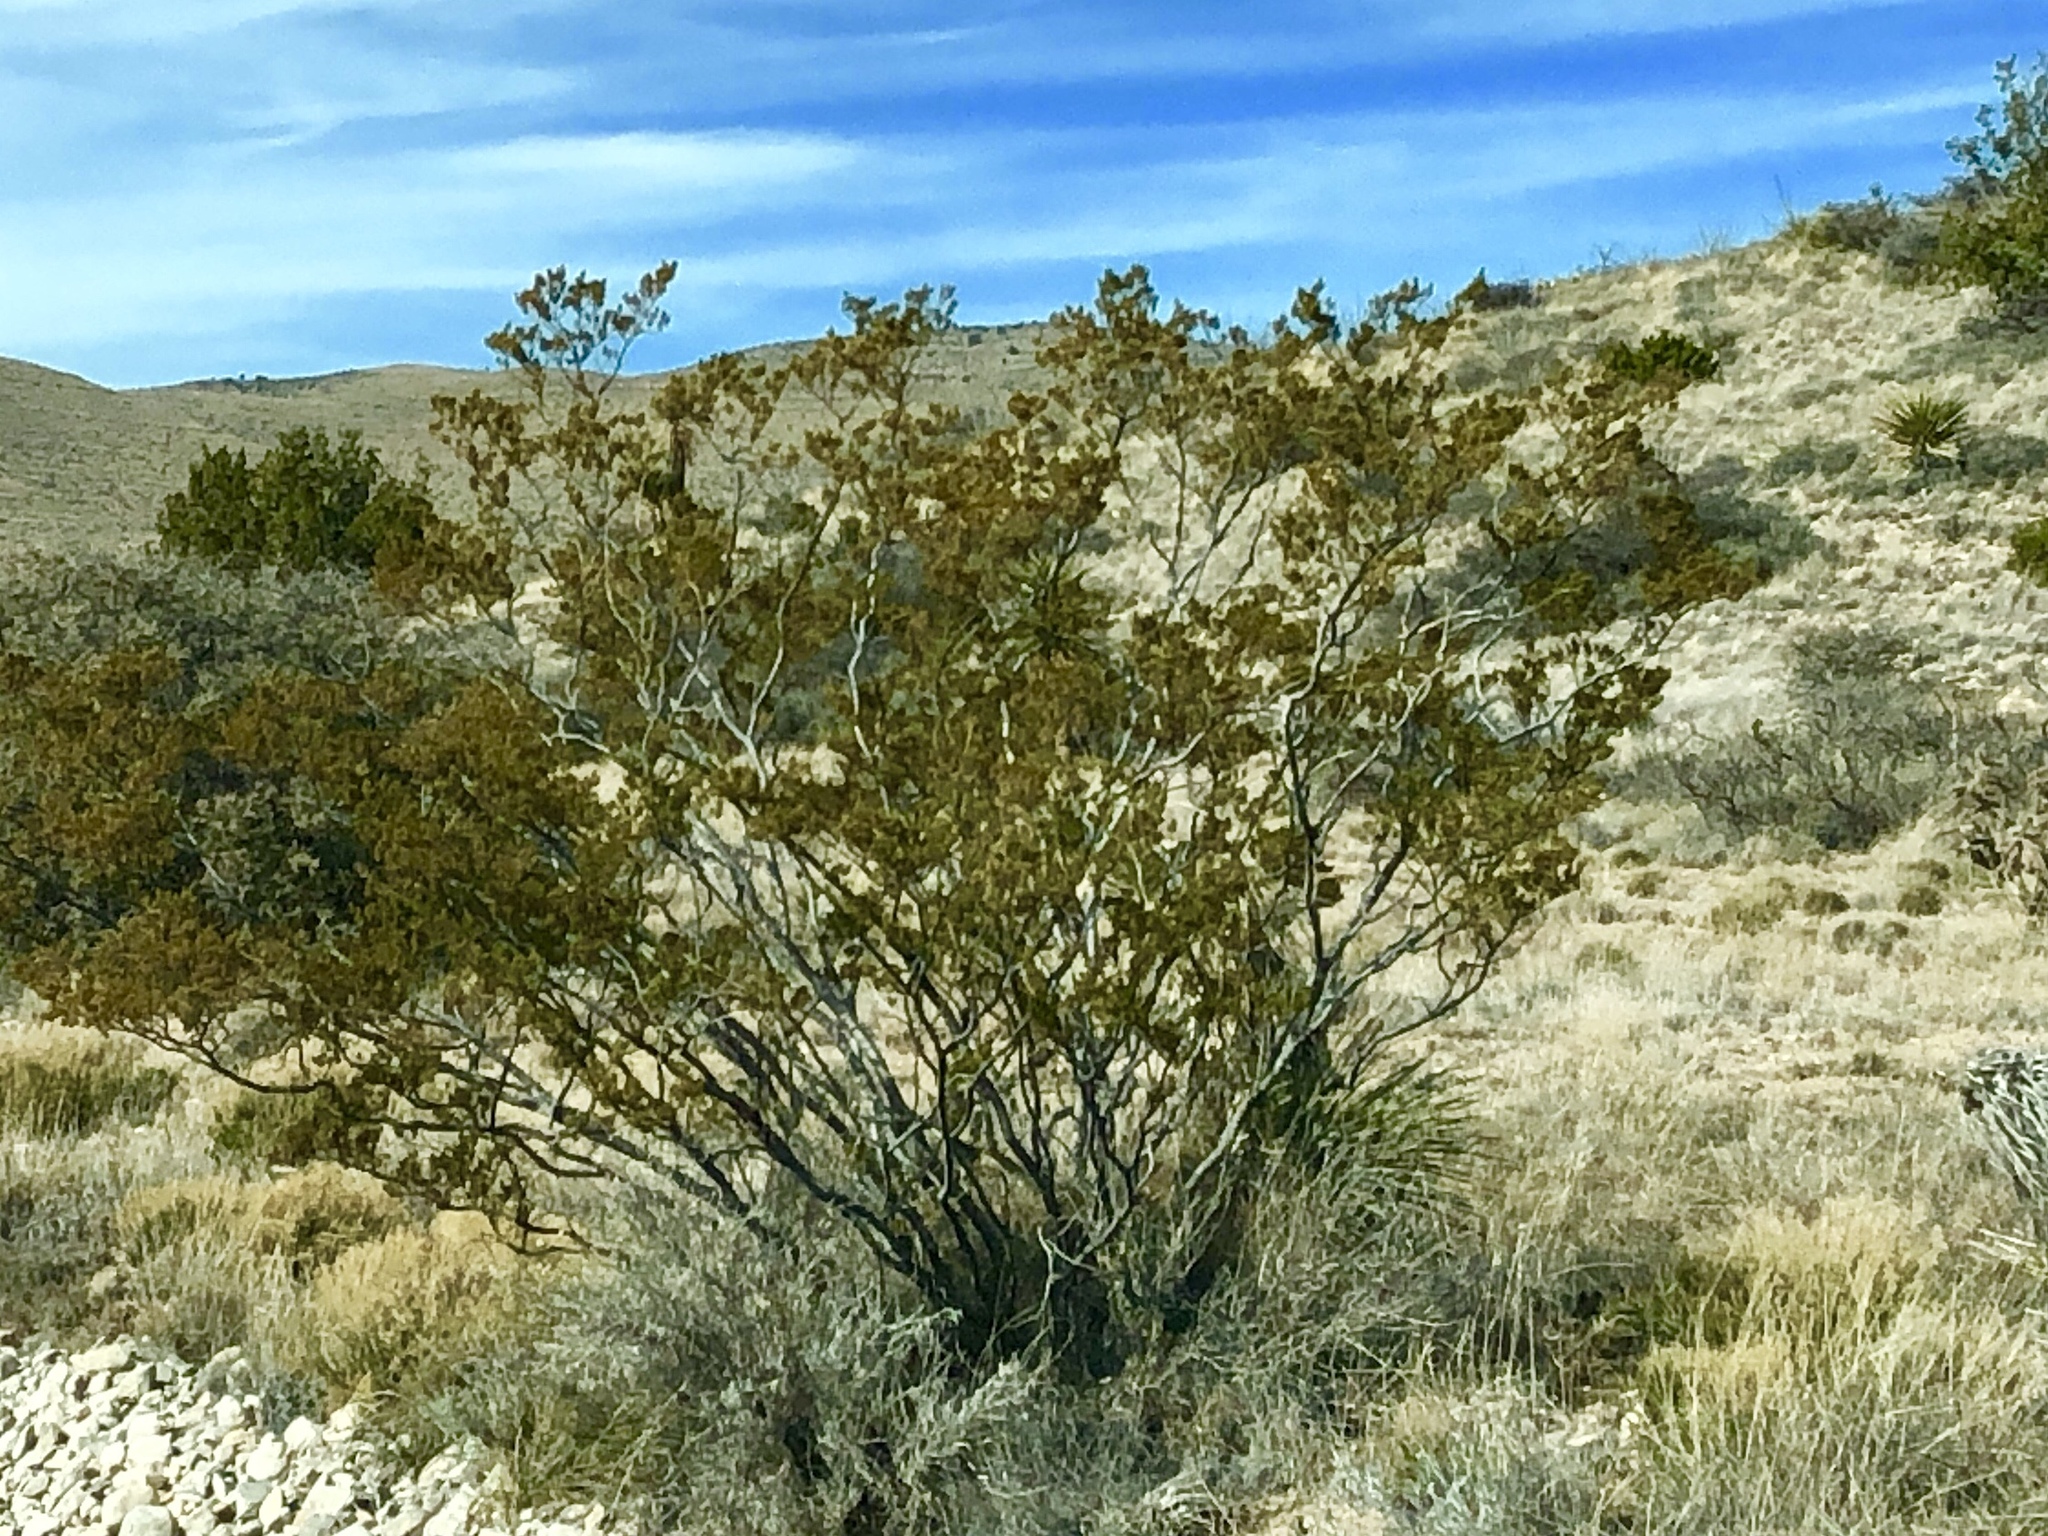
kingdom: Plantae
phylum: Tracheophyta
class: Magnoliopsida
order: Zygophyllales
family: Zygophyllaceae
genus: Larrea
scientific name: Larrea tridentata
